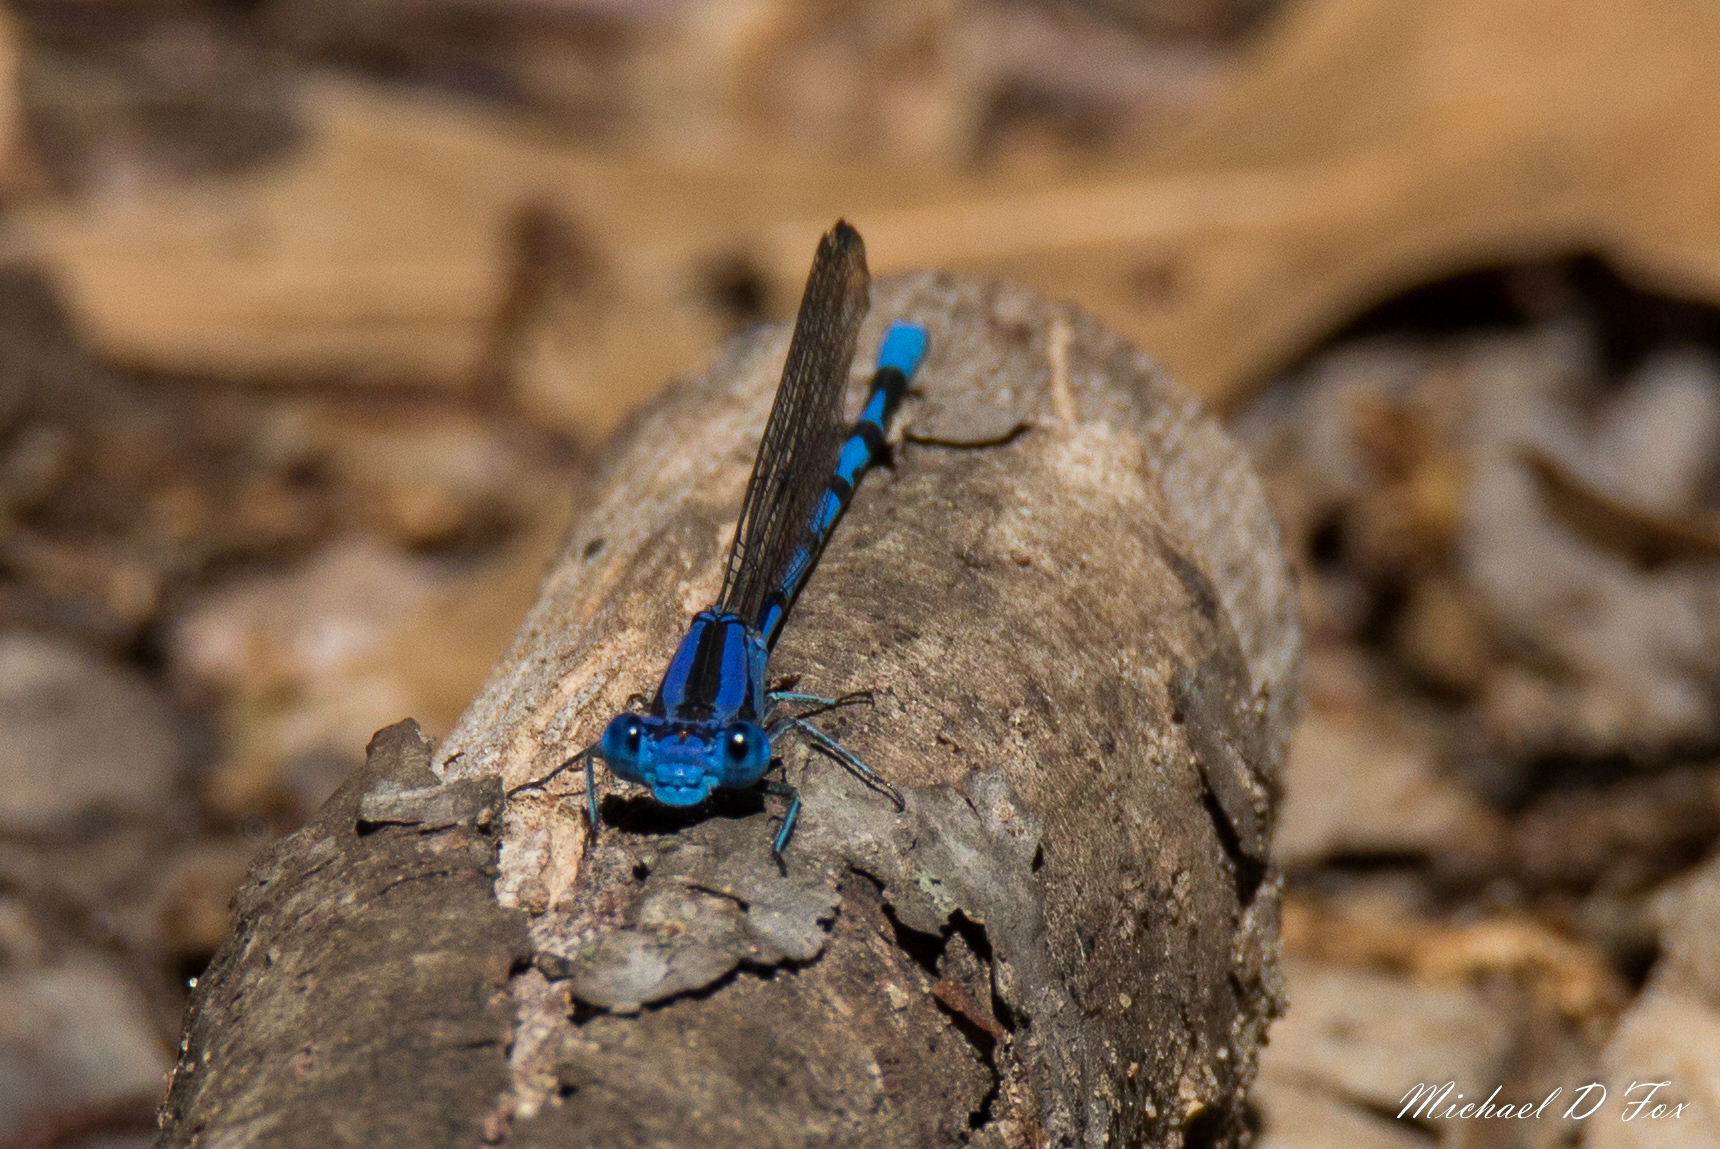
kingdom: Animalia
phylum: Arthropoda
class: Insecta
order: Odonata
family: Coenagrionidae
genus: Argia
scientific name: Argia funebris
